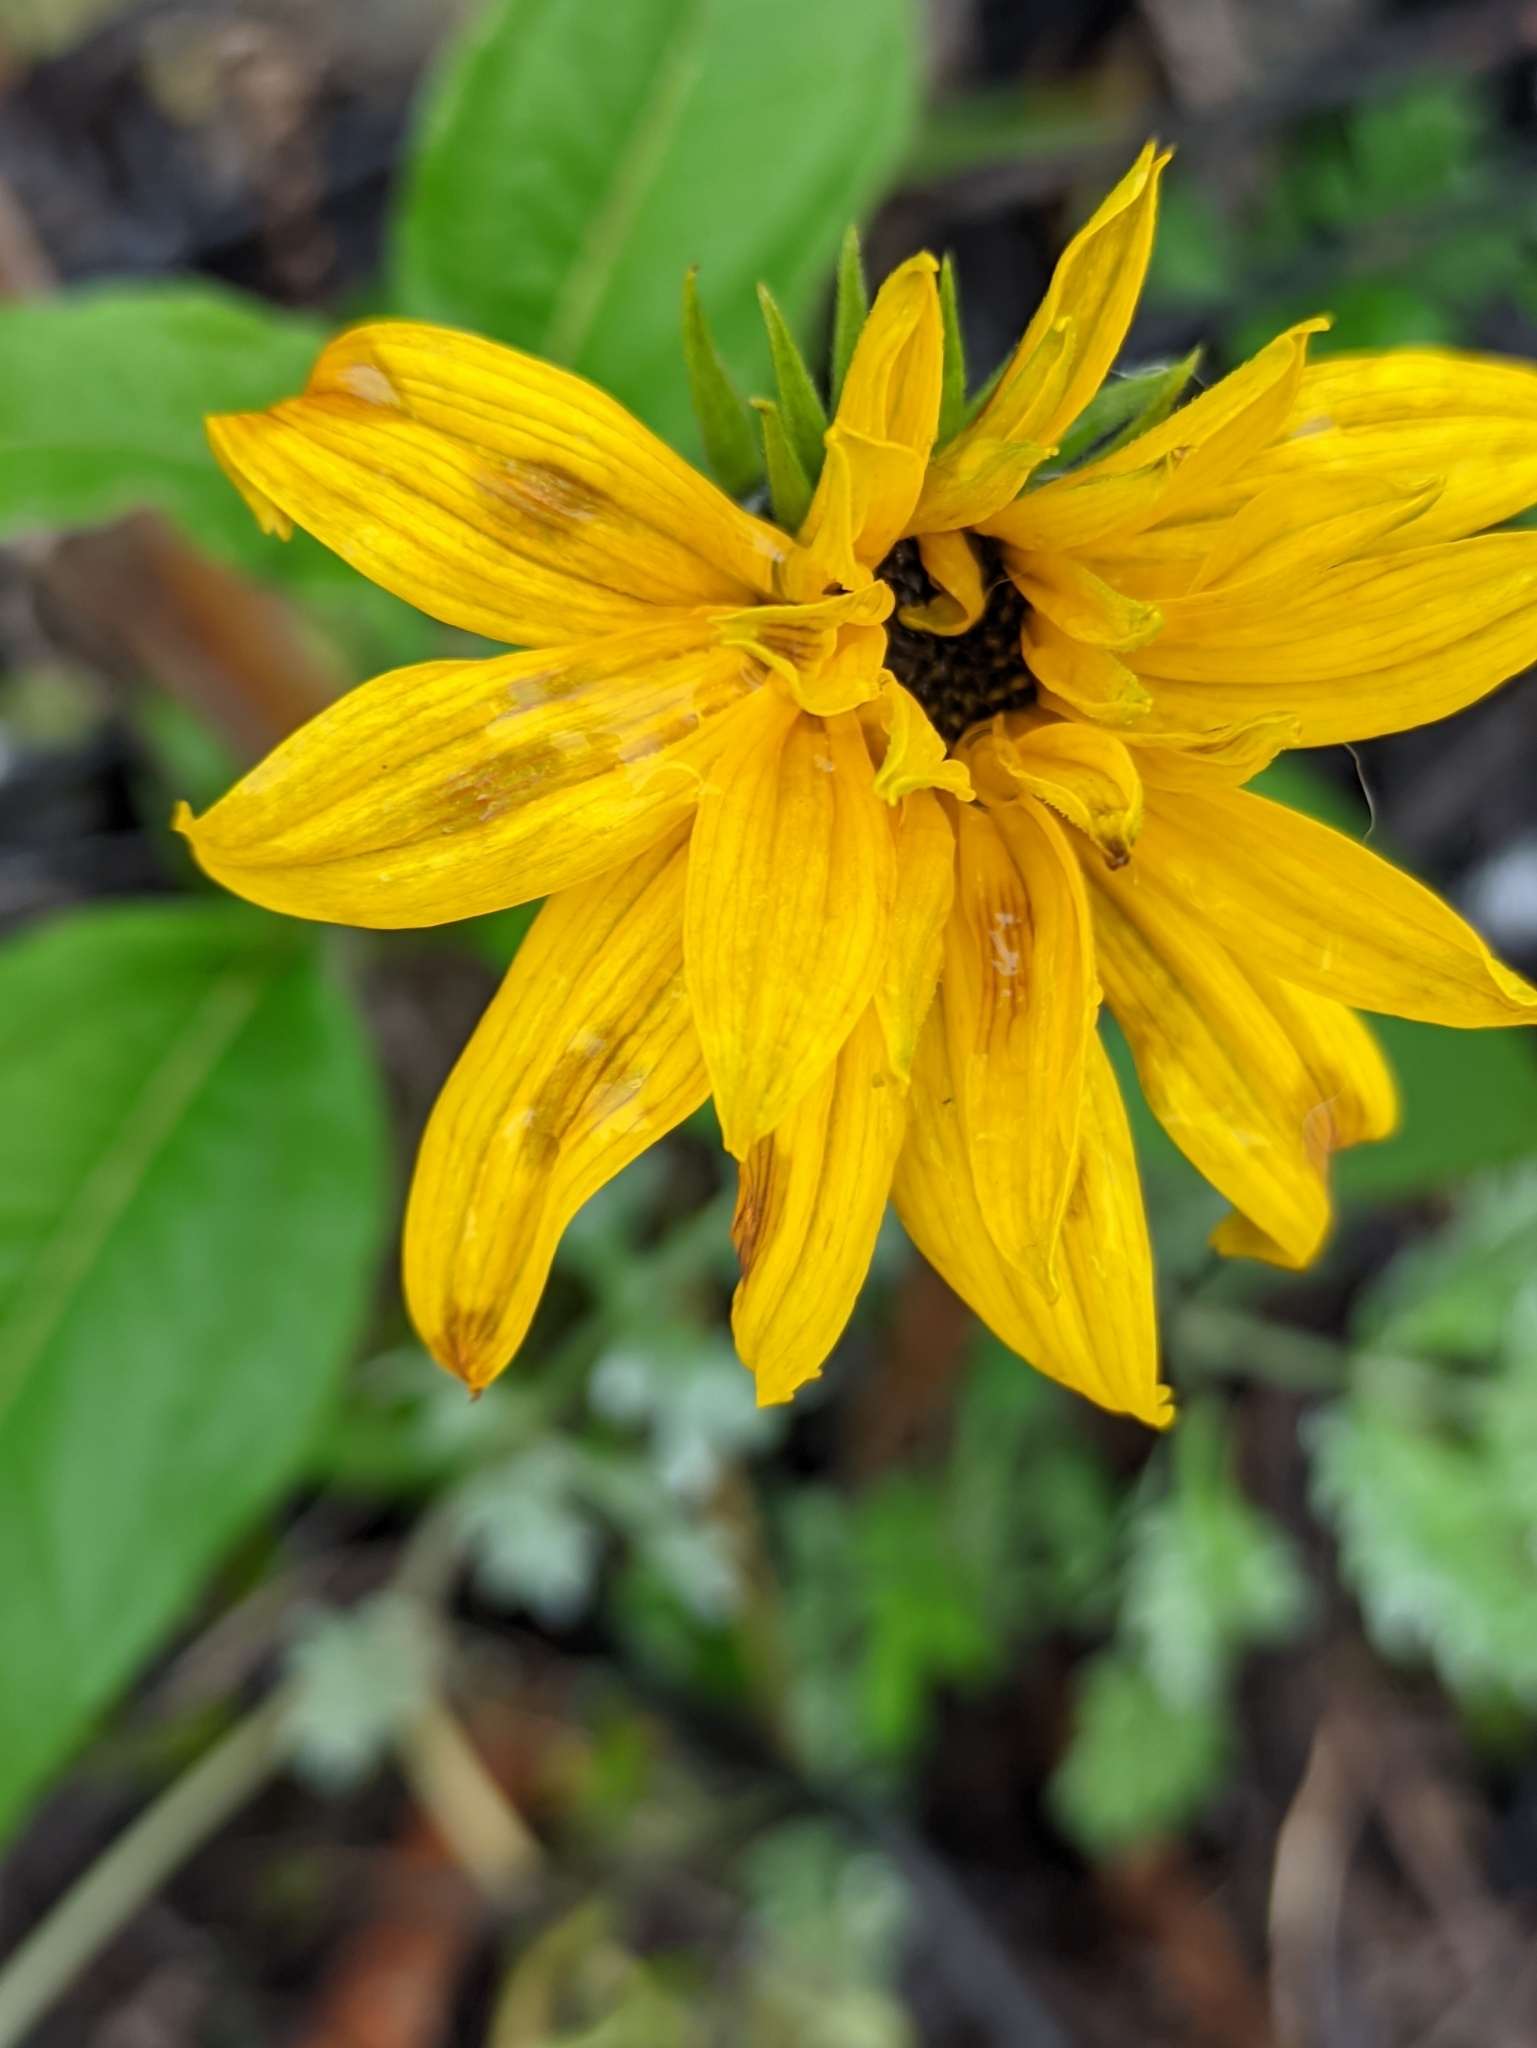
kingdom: Plantae
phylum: Tracheophyta
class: Magnoliopsida
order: Asterales
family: Asteraceae
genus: Helianthus
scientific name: Helianthus tuberosus
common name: Jerusalem artichoke
